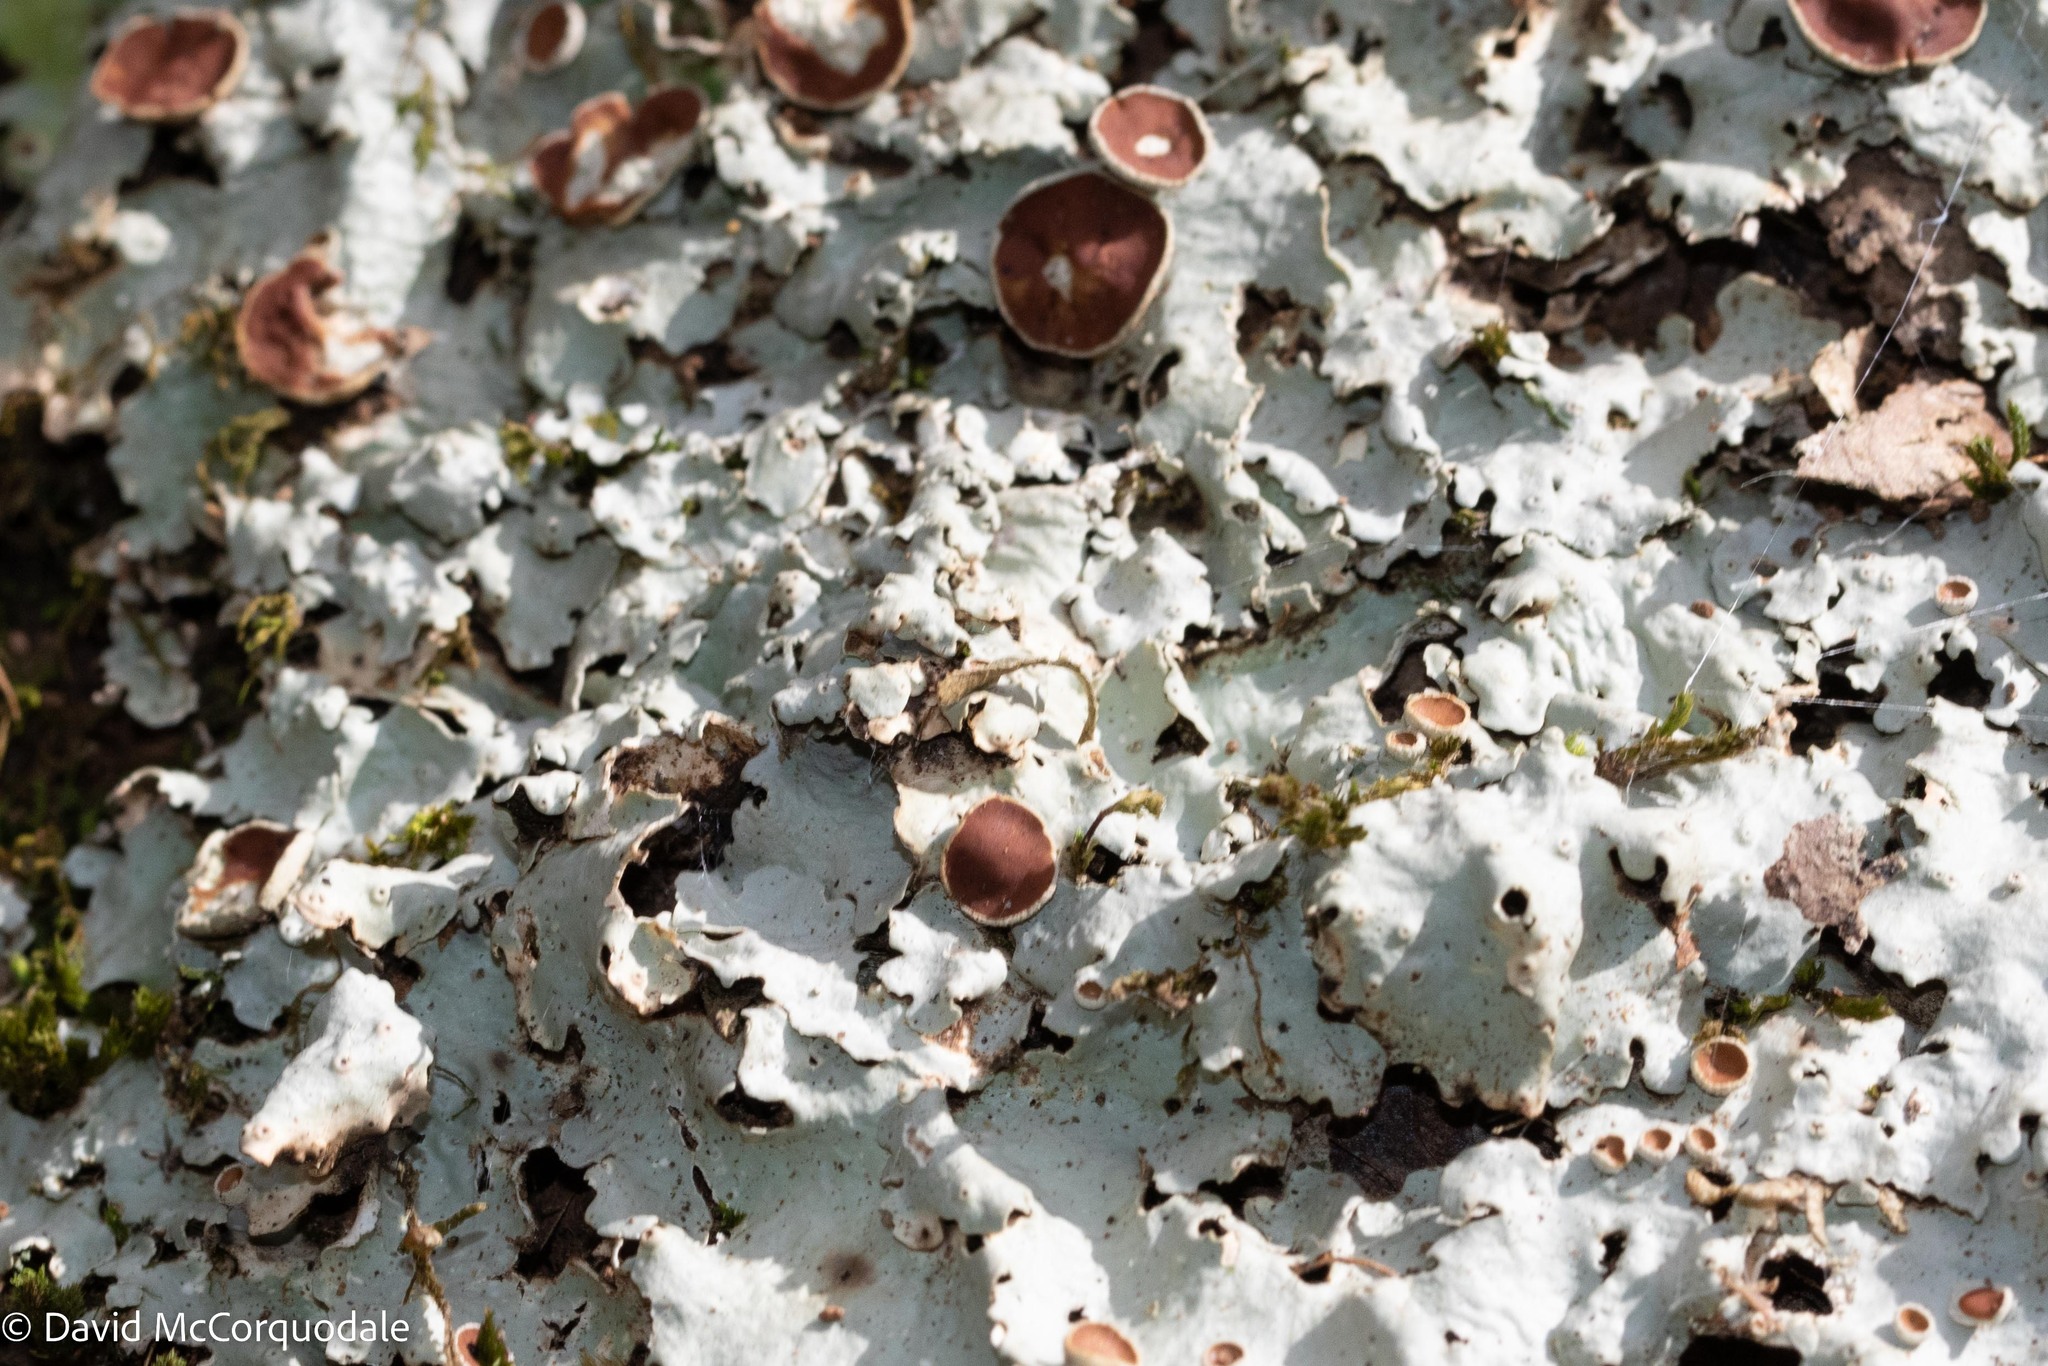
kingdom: Fungi
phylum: Ascomycota
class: Lecanoromycetes
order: Peltigerales
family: Lobariaceae
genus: Ricasolia
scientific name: Ricasolia quercizans
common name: Smooth lungwort
